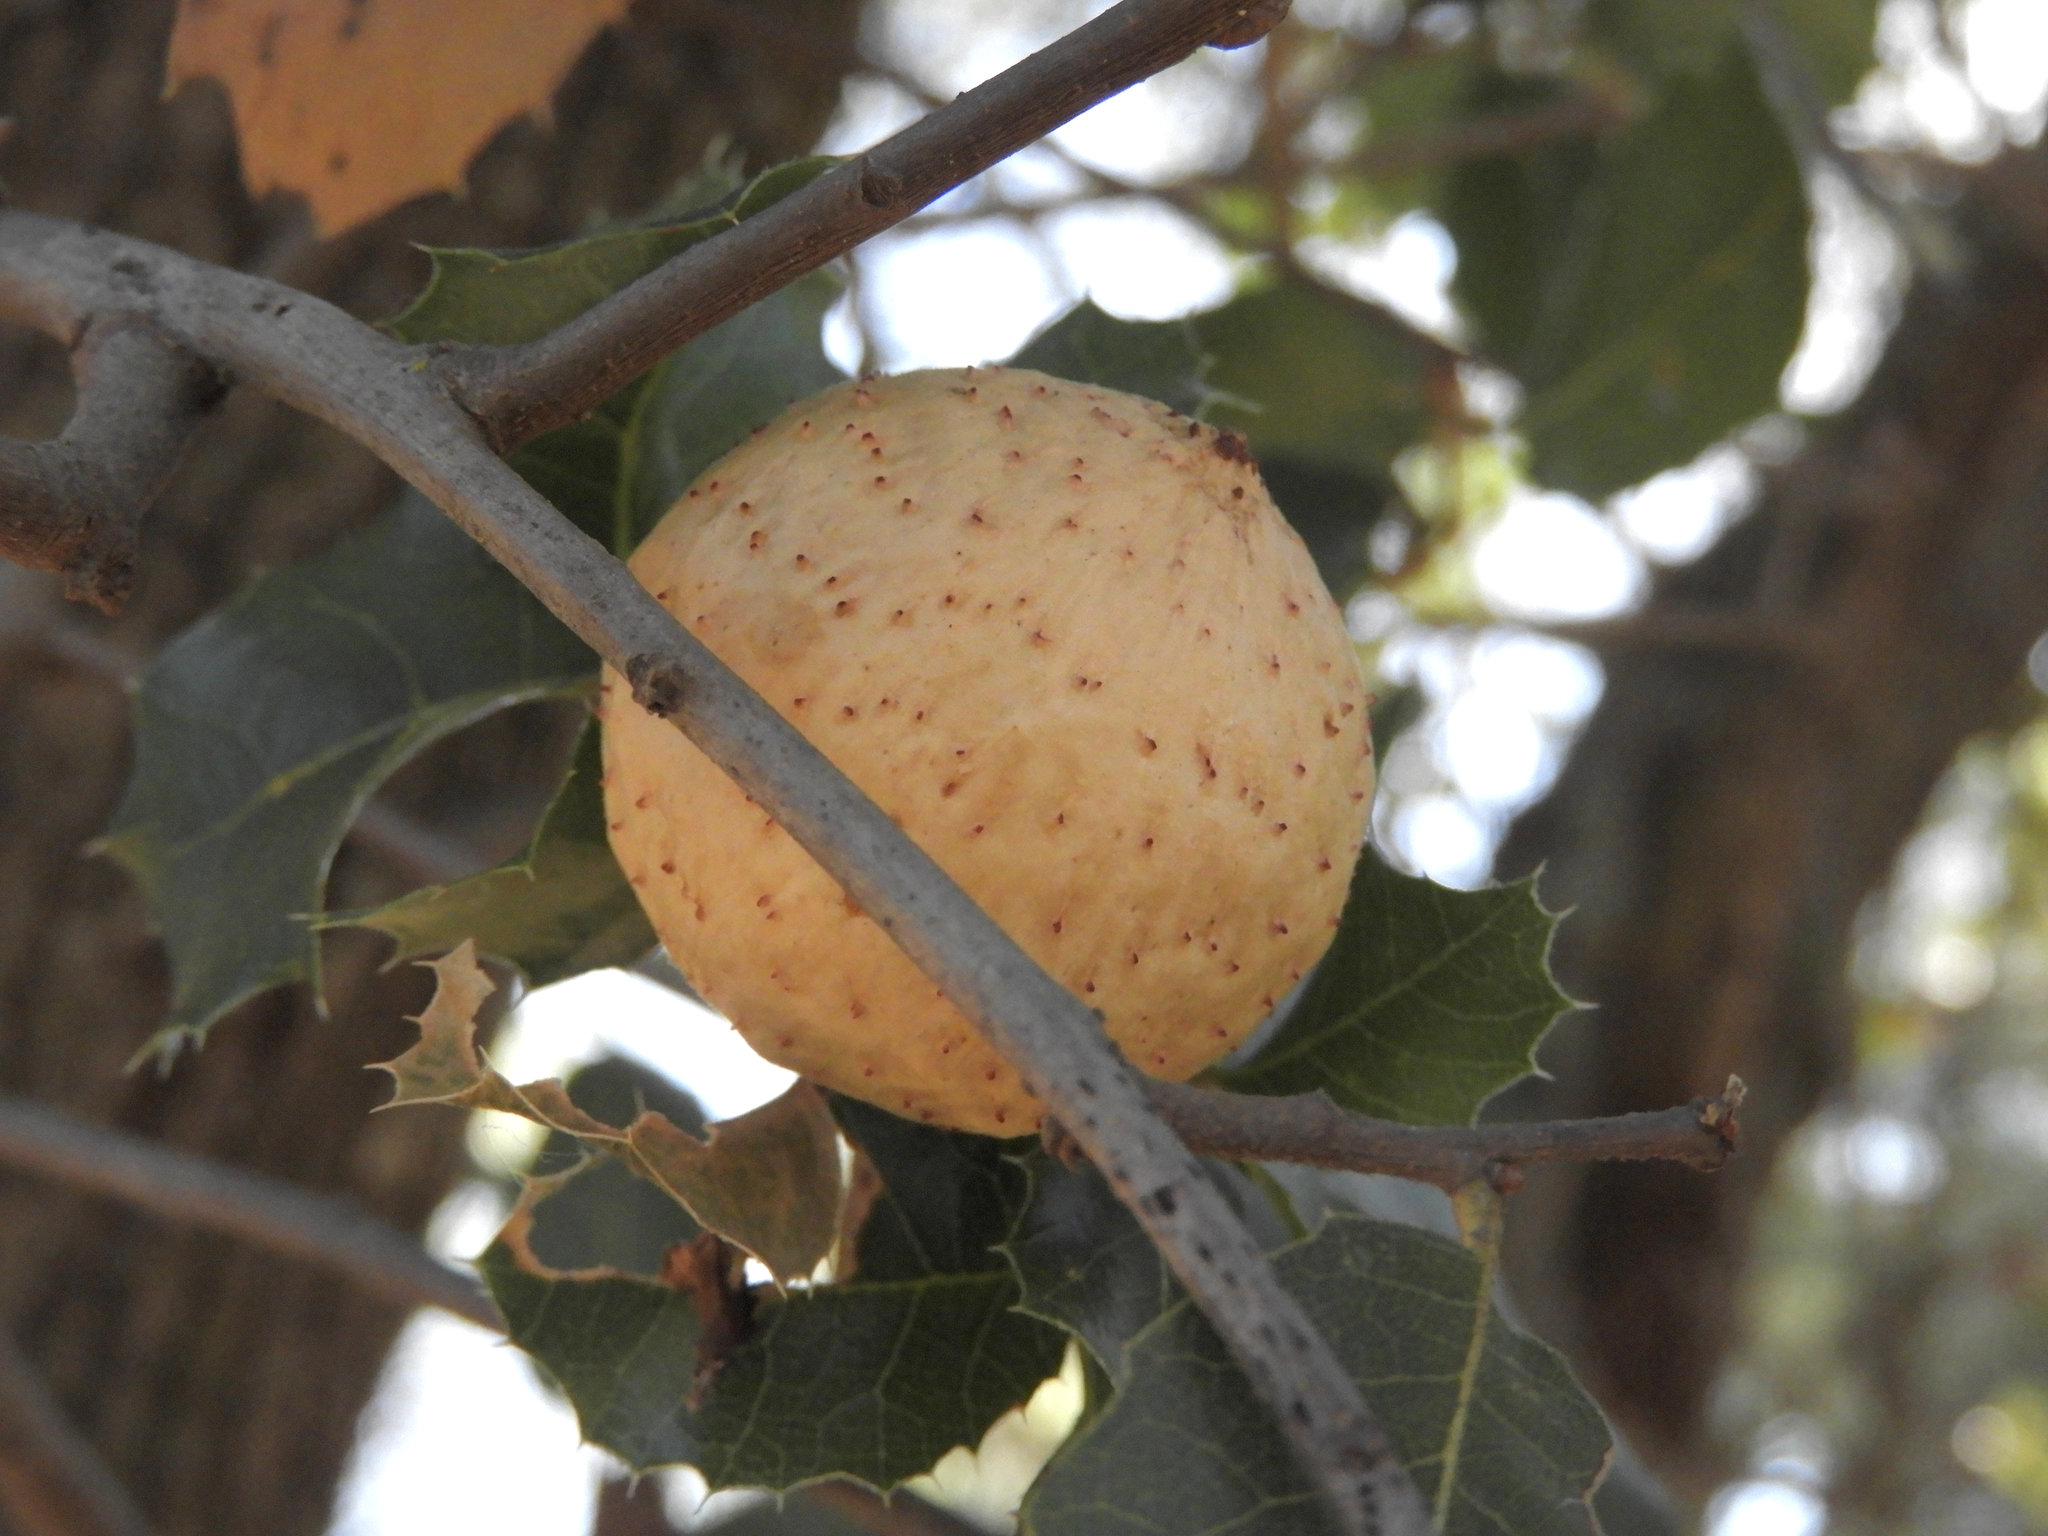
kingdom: Animalia
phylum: Arthropoda
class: Insecta
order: Hymenoptera
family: Cynipidae
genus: Amphibolips
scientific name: Amphibolips quercuspomiformis
